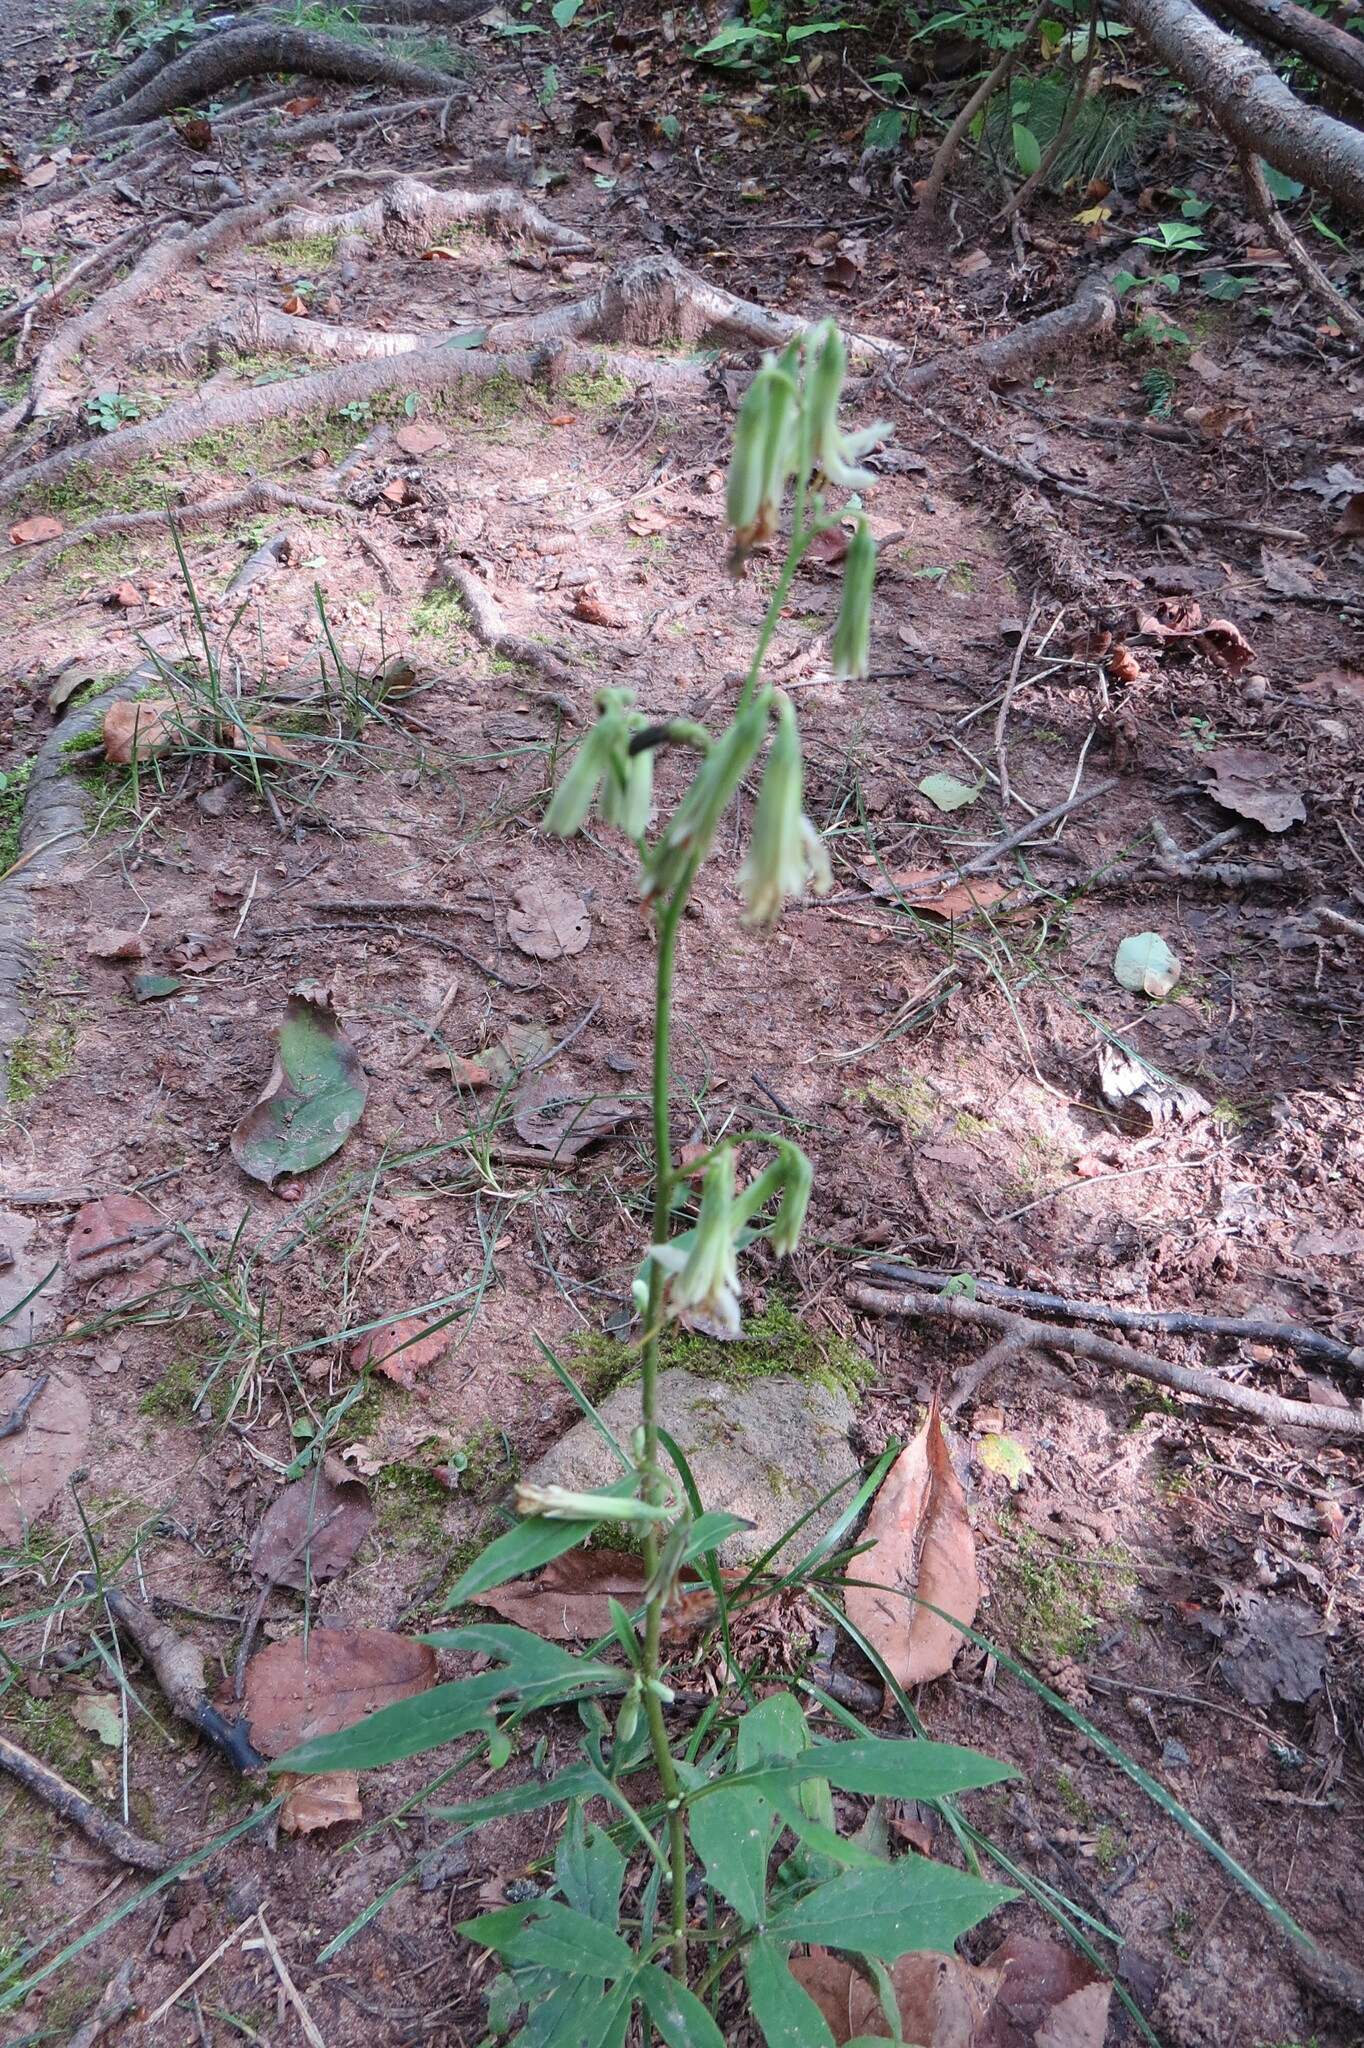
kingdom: Plantae
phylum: Tracheophyta
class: Magnoliopsida
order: Asterales
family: Asteraceae
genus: Nabalus
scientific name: Nabalus altissima
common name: Tall rattlesnakeroot
